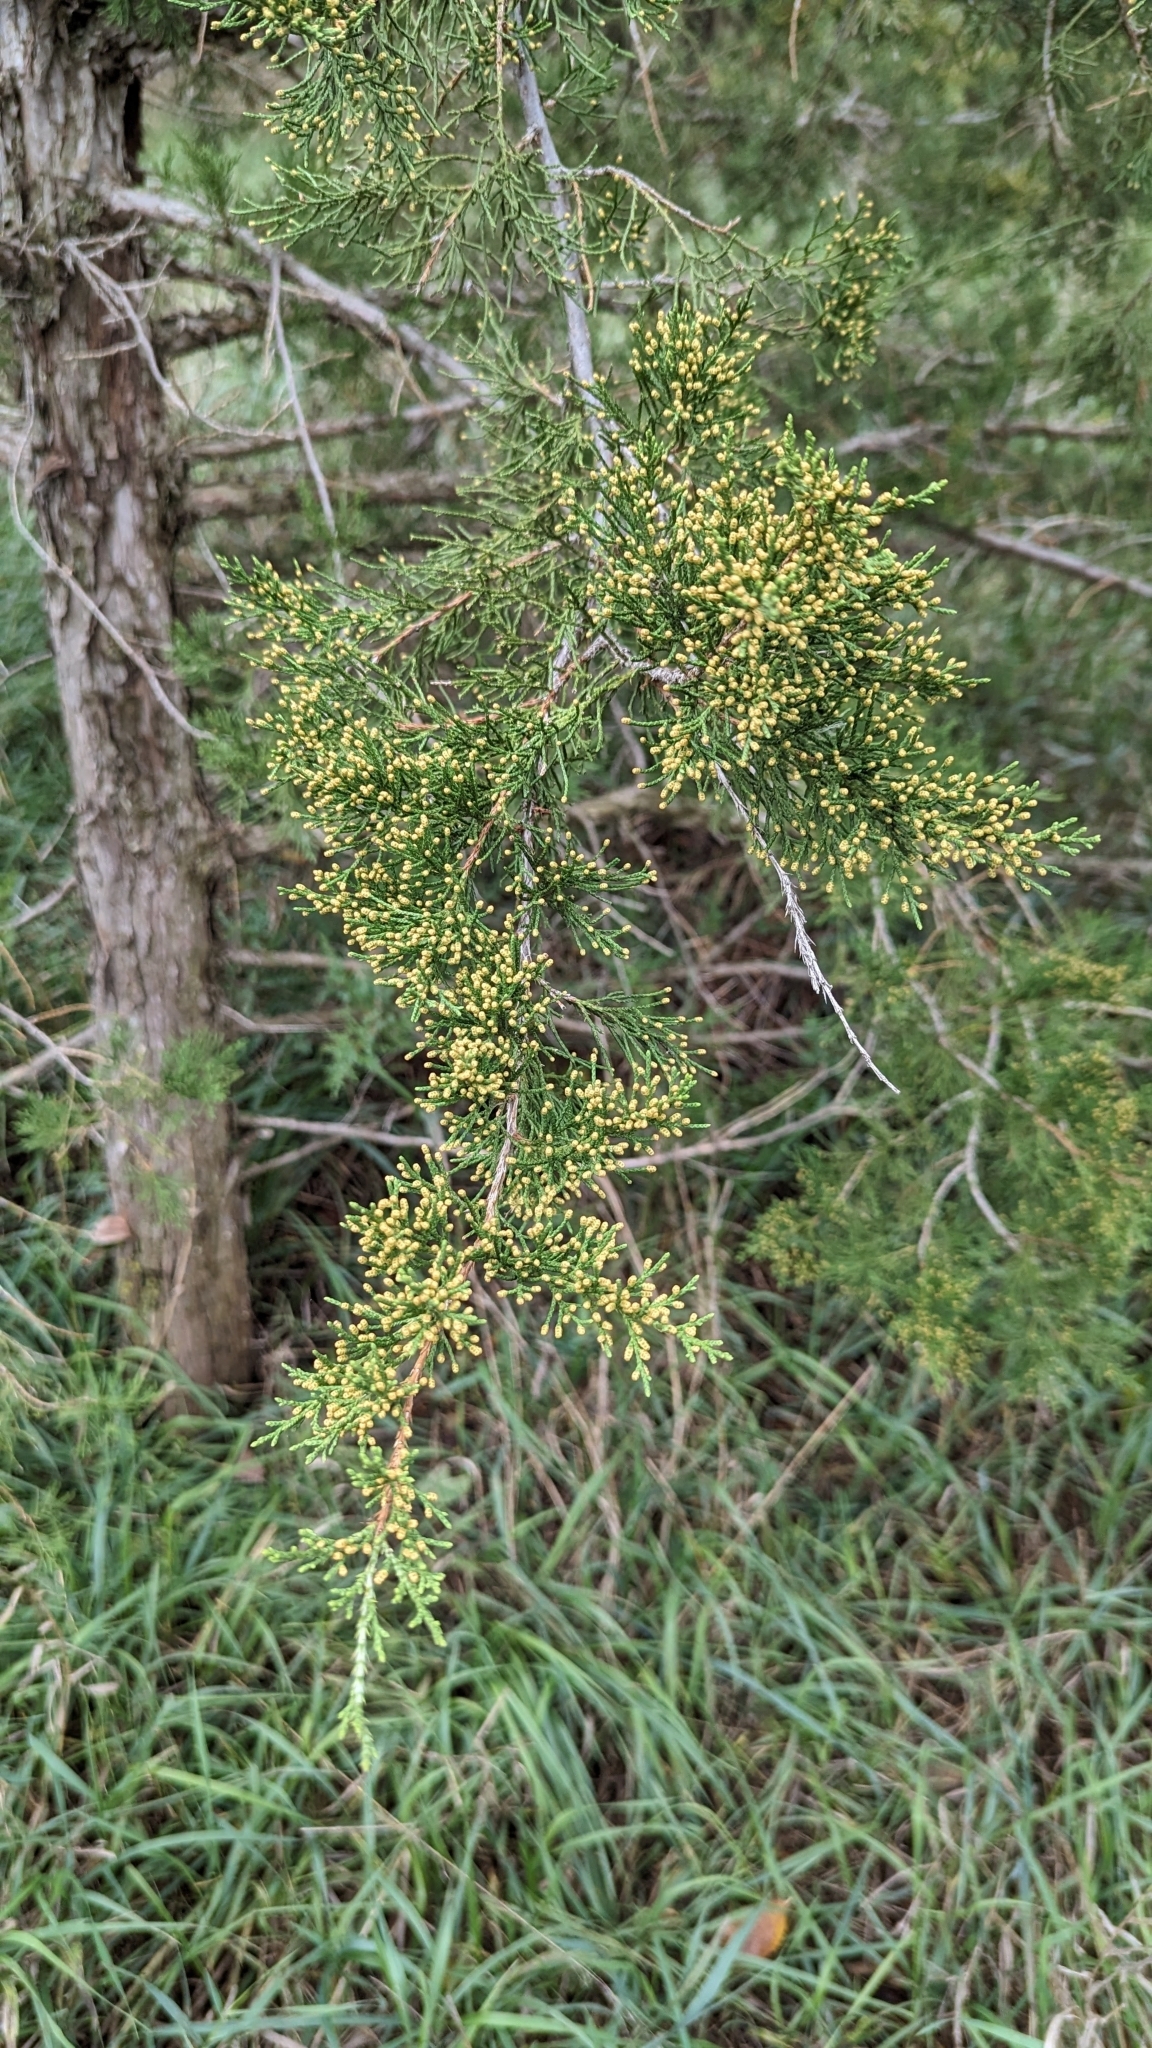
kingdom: Plantae
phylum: Tracheophyta
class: Pinopsida
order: Pinales
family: Cupressaceae
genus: Juniperus
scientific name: Juniperus virginiana
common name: Red juniper
